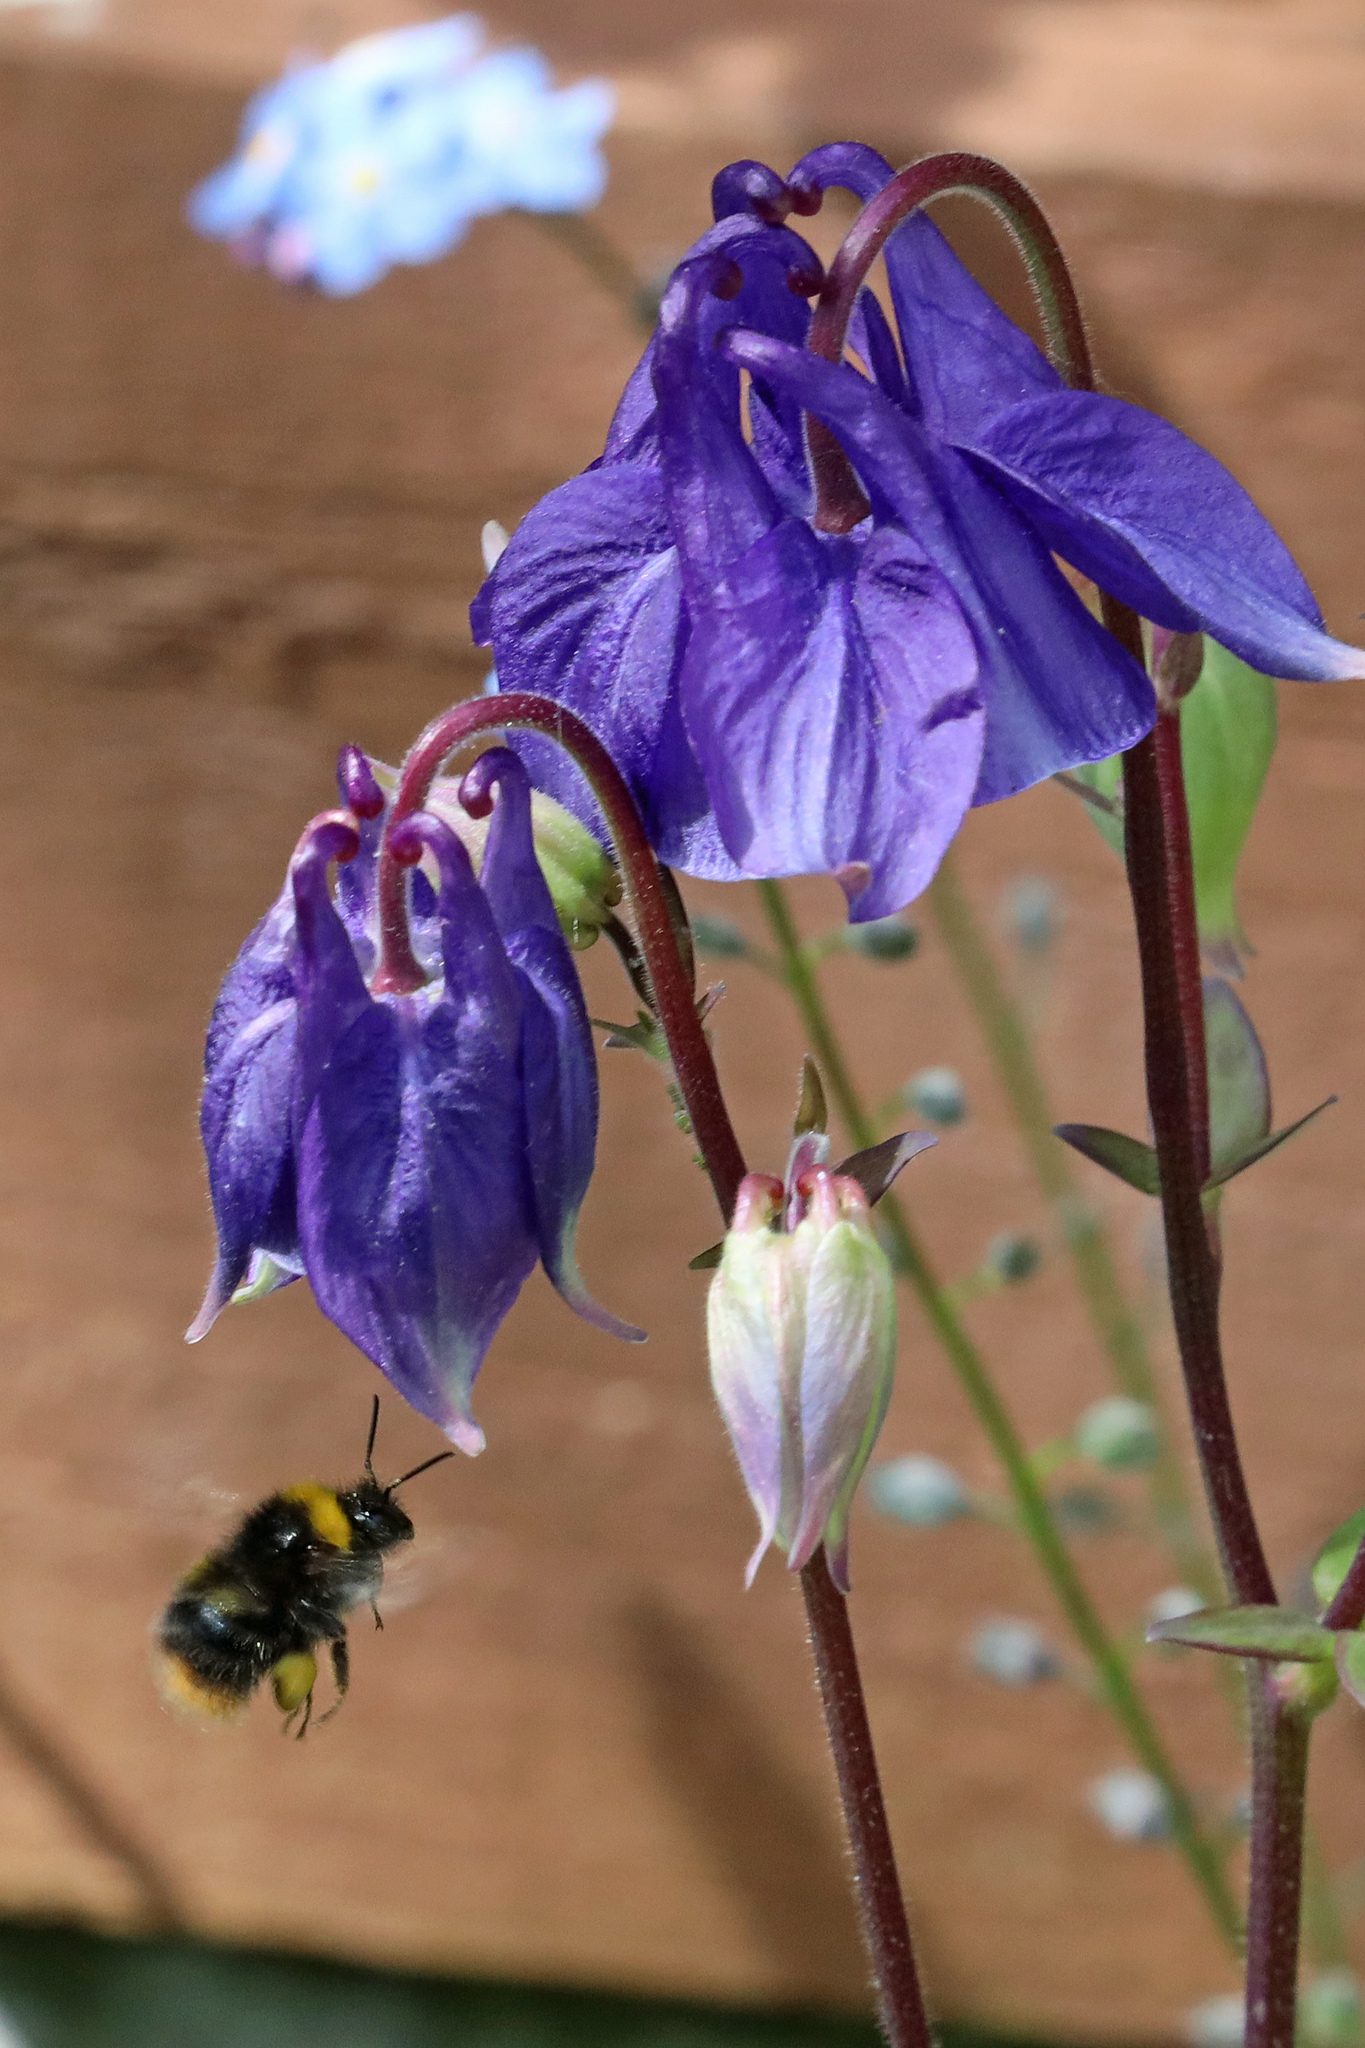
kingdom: Animalia
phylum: Arthropoda
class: Insecta
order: Hymenoptera
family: Apidae
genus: Bombus
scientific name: Bombus pratorum
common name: Early humble-bee
